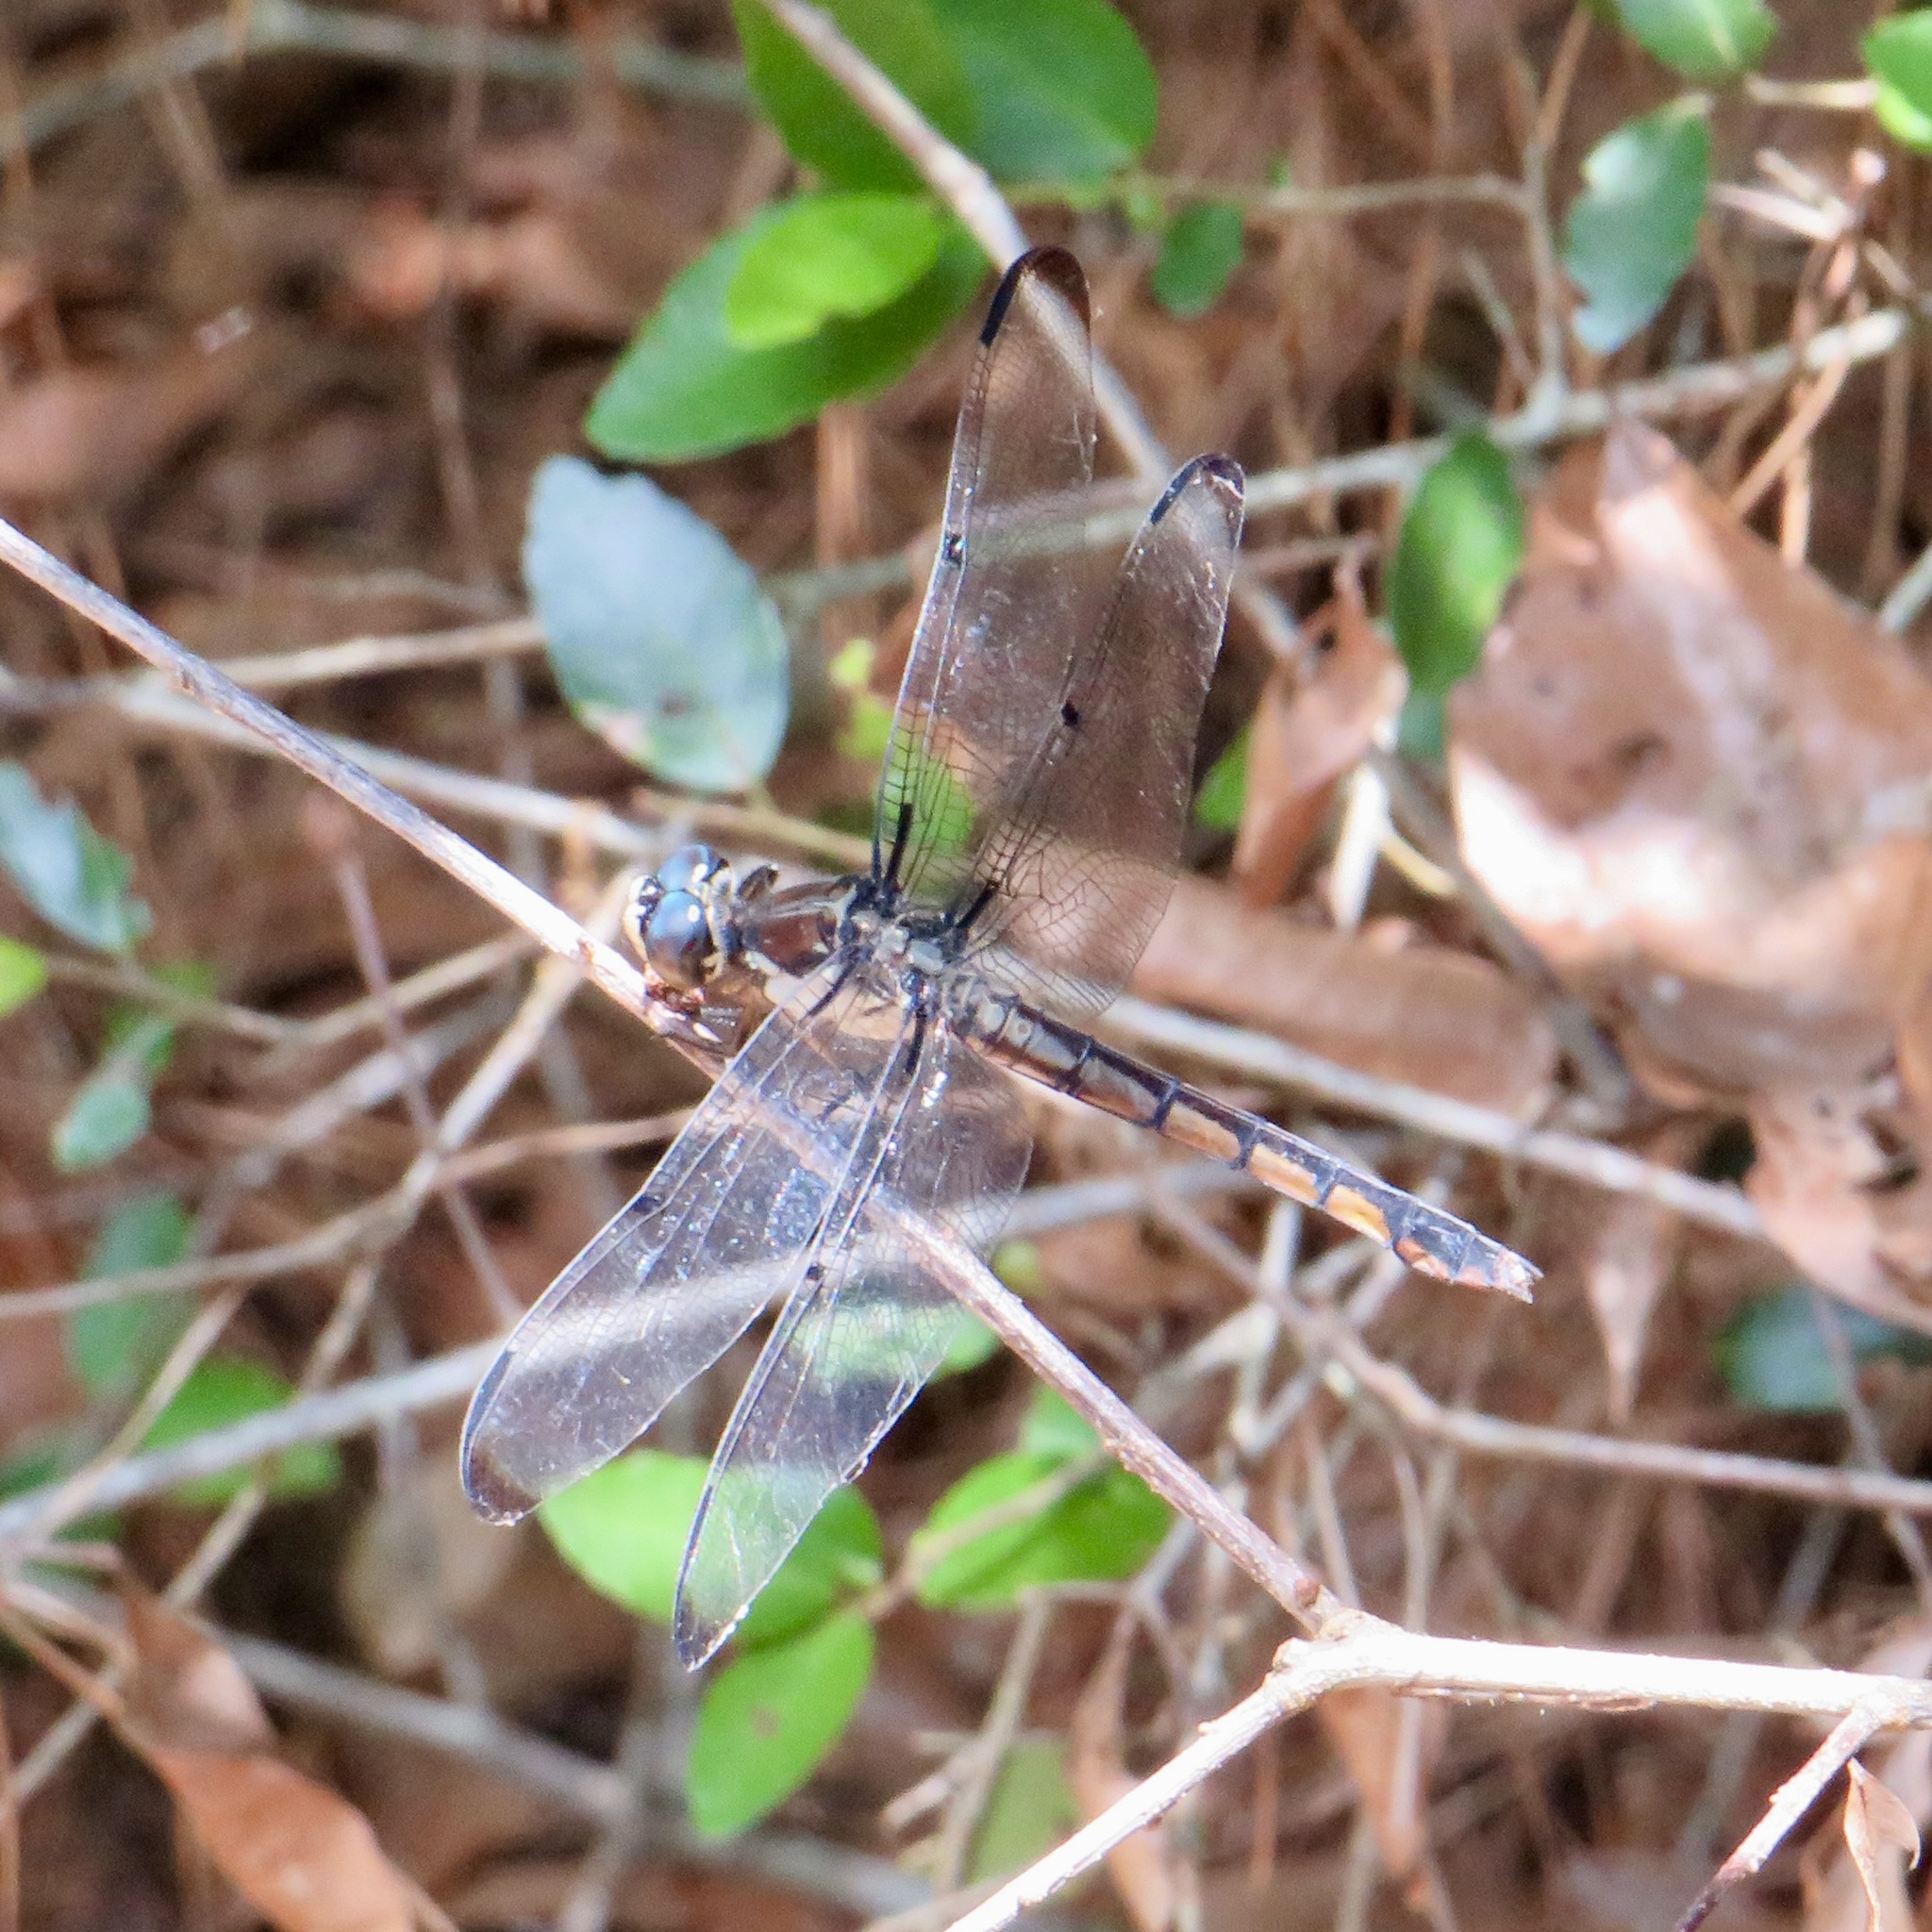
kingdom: Animalia
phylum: Arthropoda
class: Insecta
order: Odonata
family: Libellulidae
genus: Libellula
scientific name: Libellula vibrans
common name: Great blue skimmer
